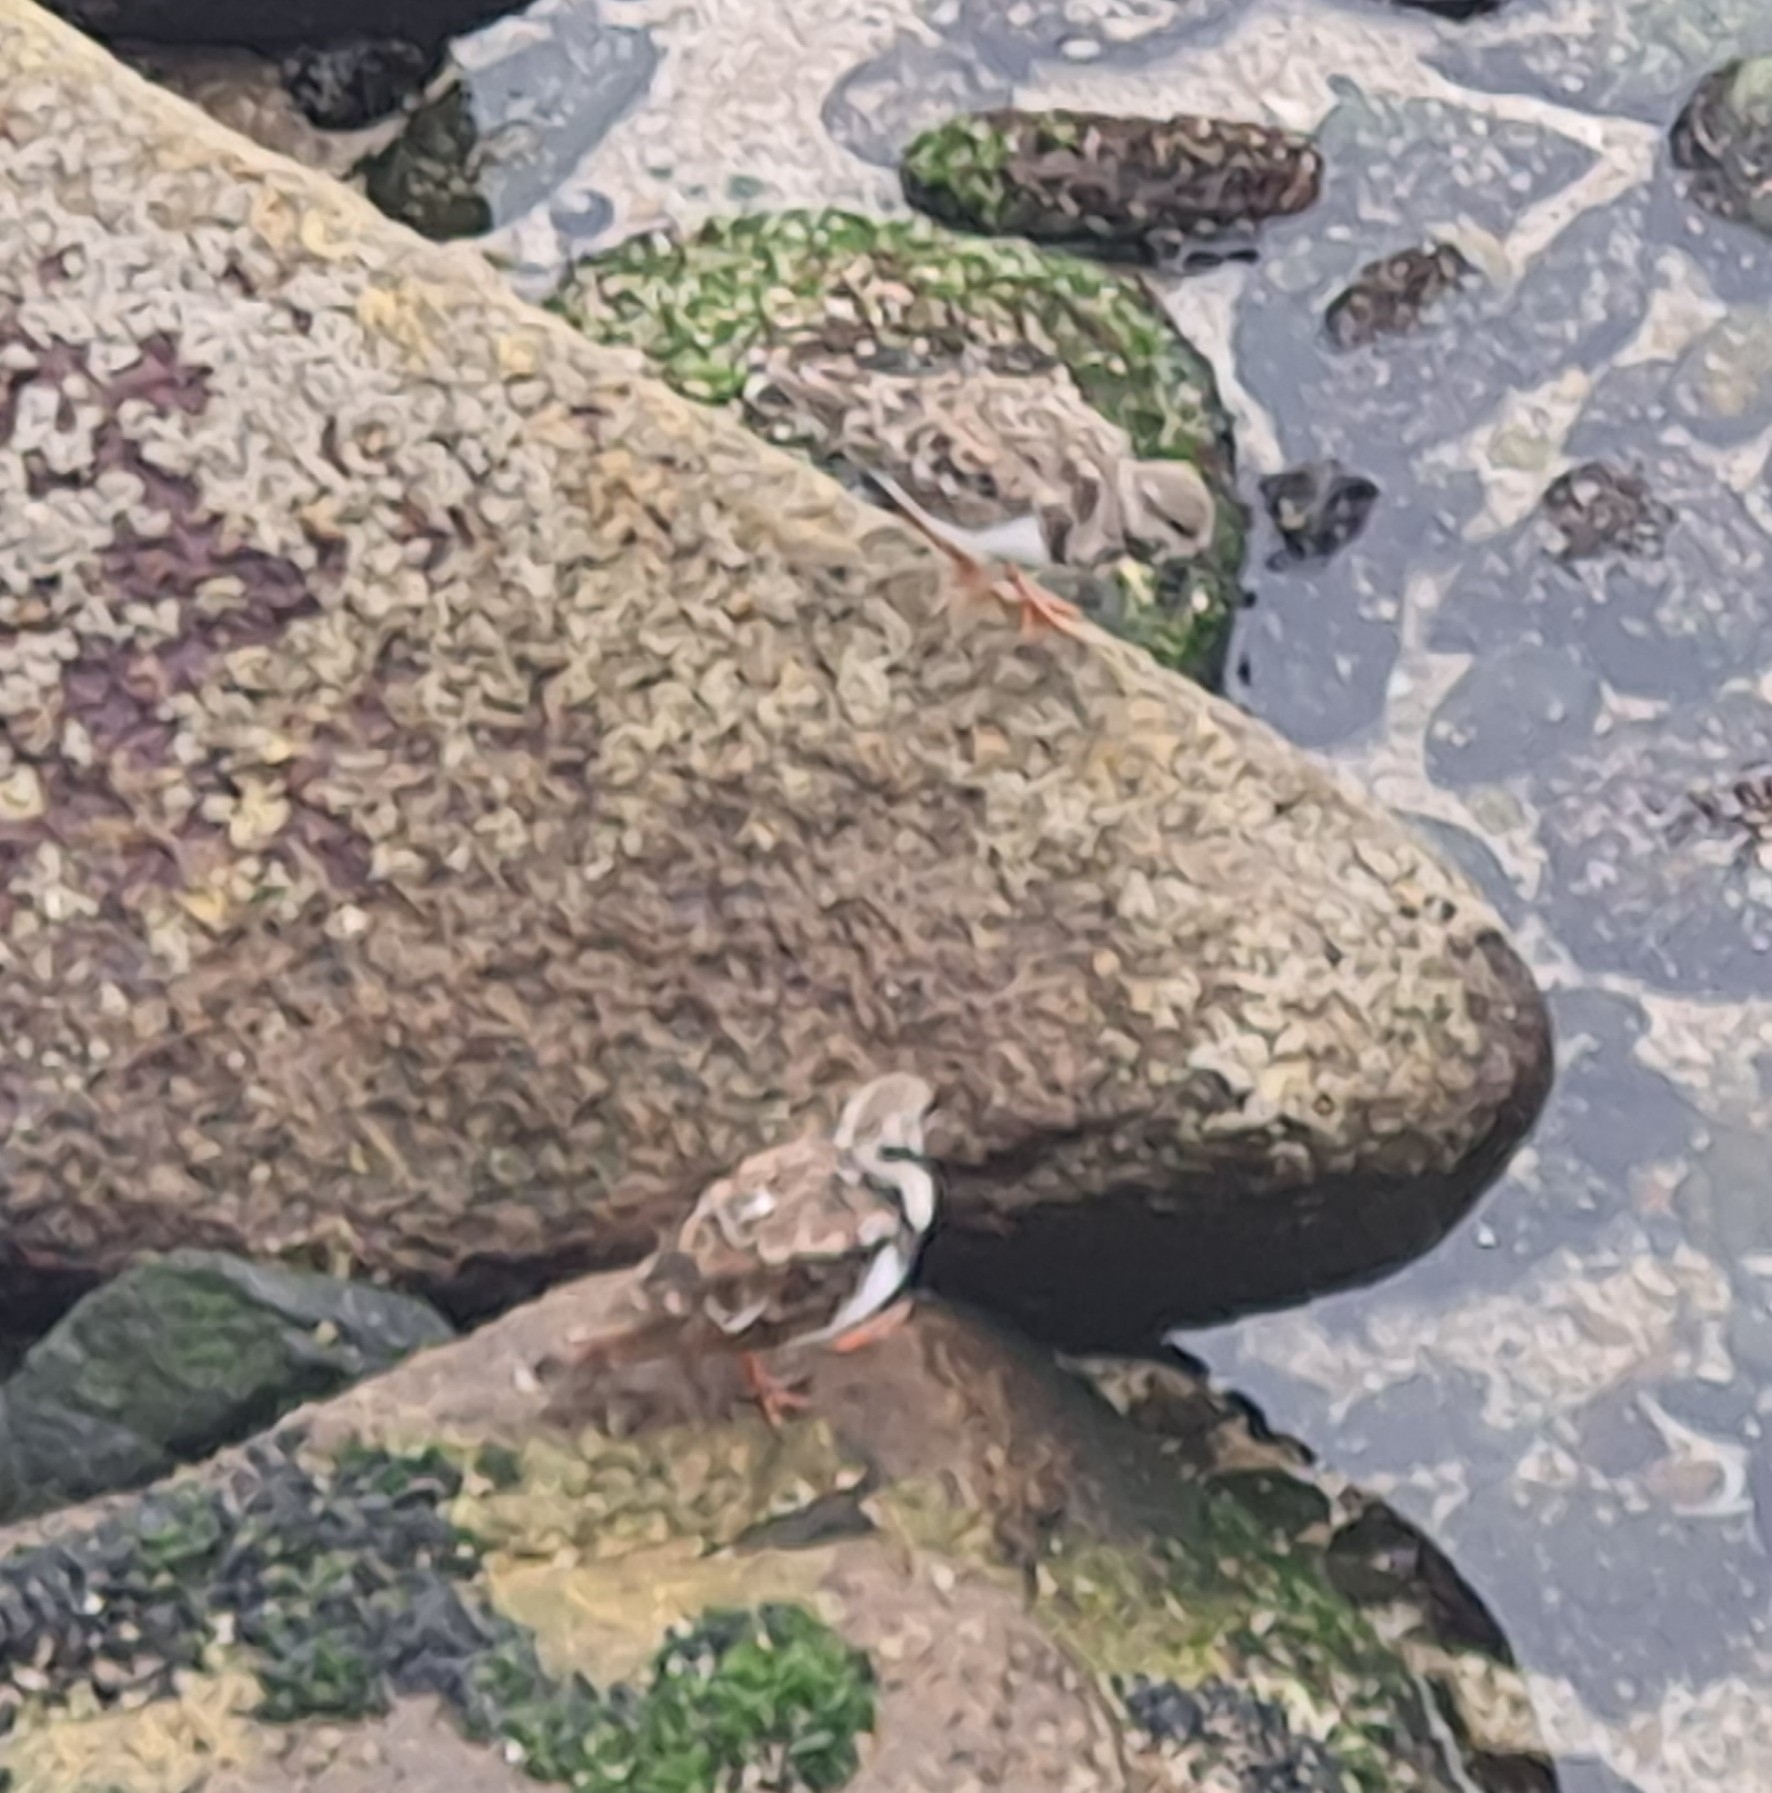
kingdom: Animalia
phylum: Chordata
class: Aves
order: Charadriiformes
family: Scolopacidae
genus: Arenaria
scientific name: Arenaria interpres
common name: Ruddy turnstone
